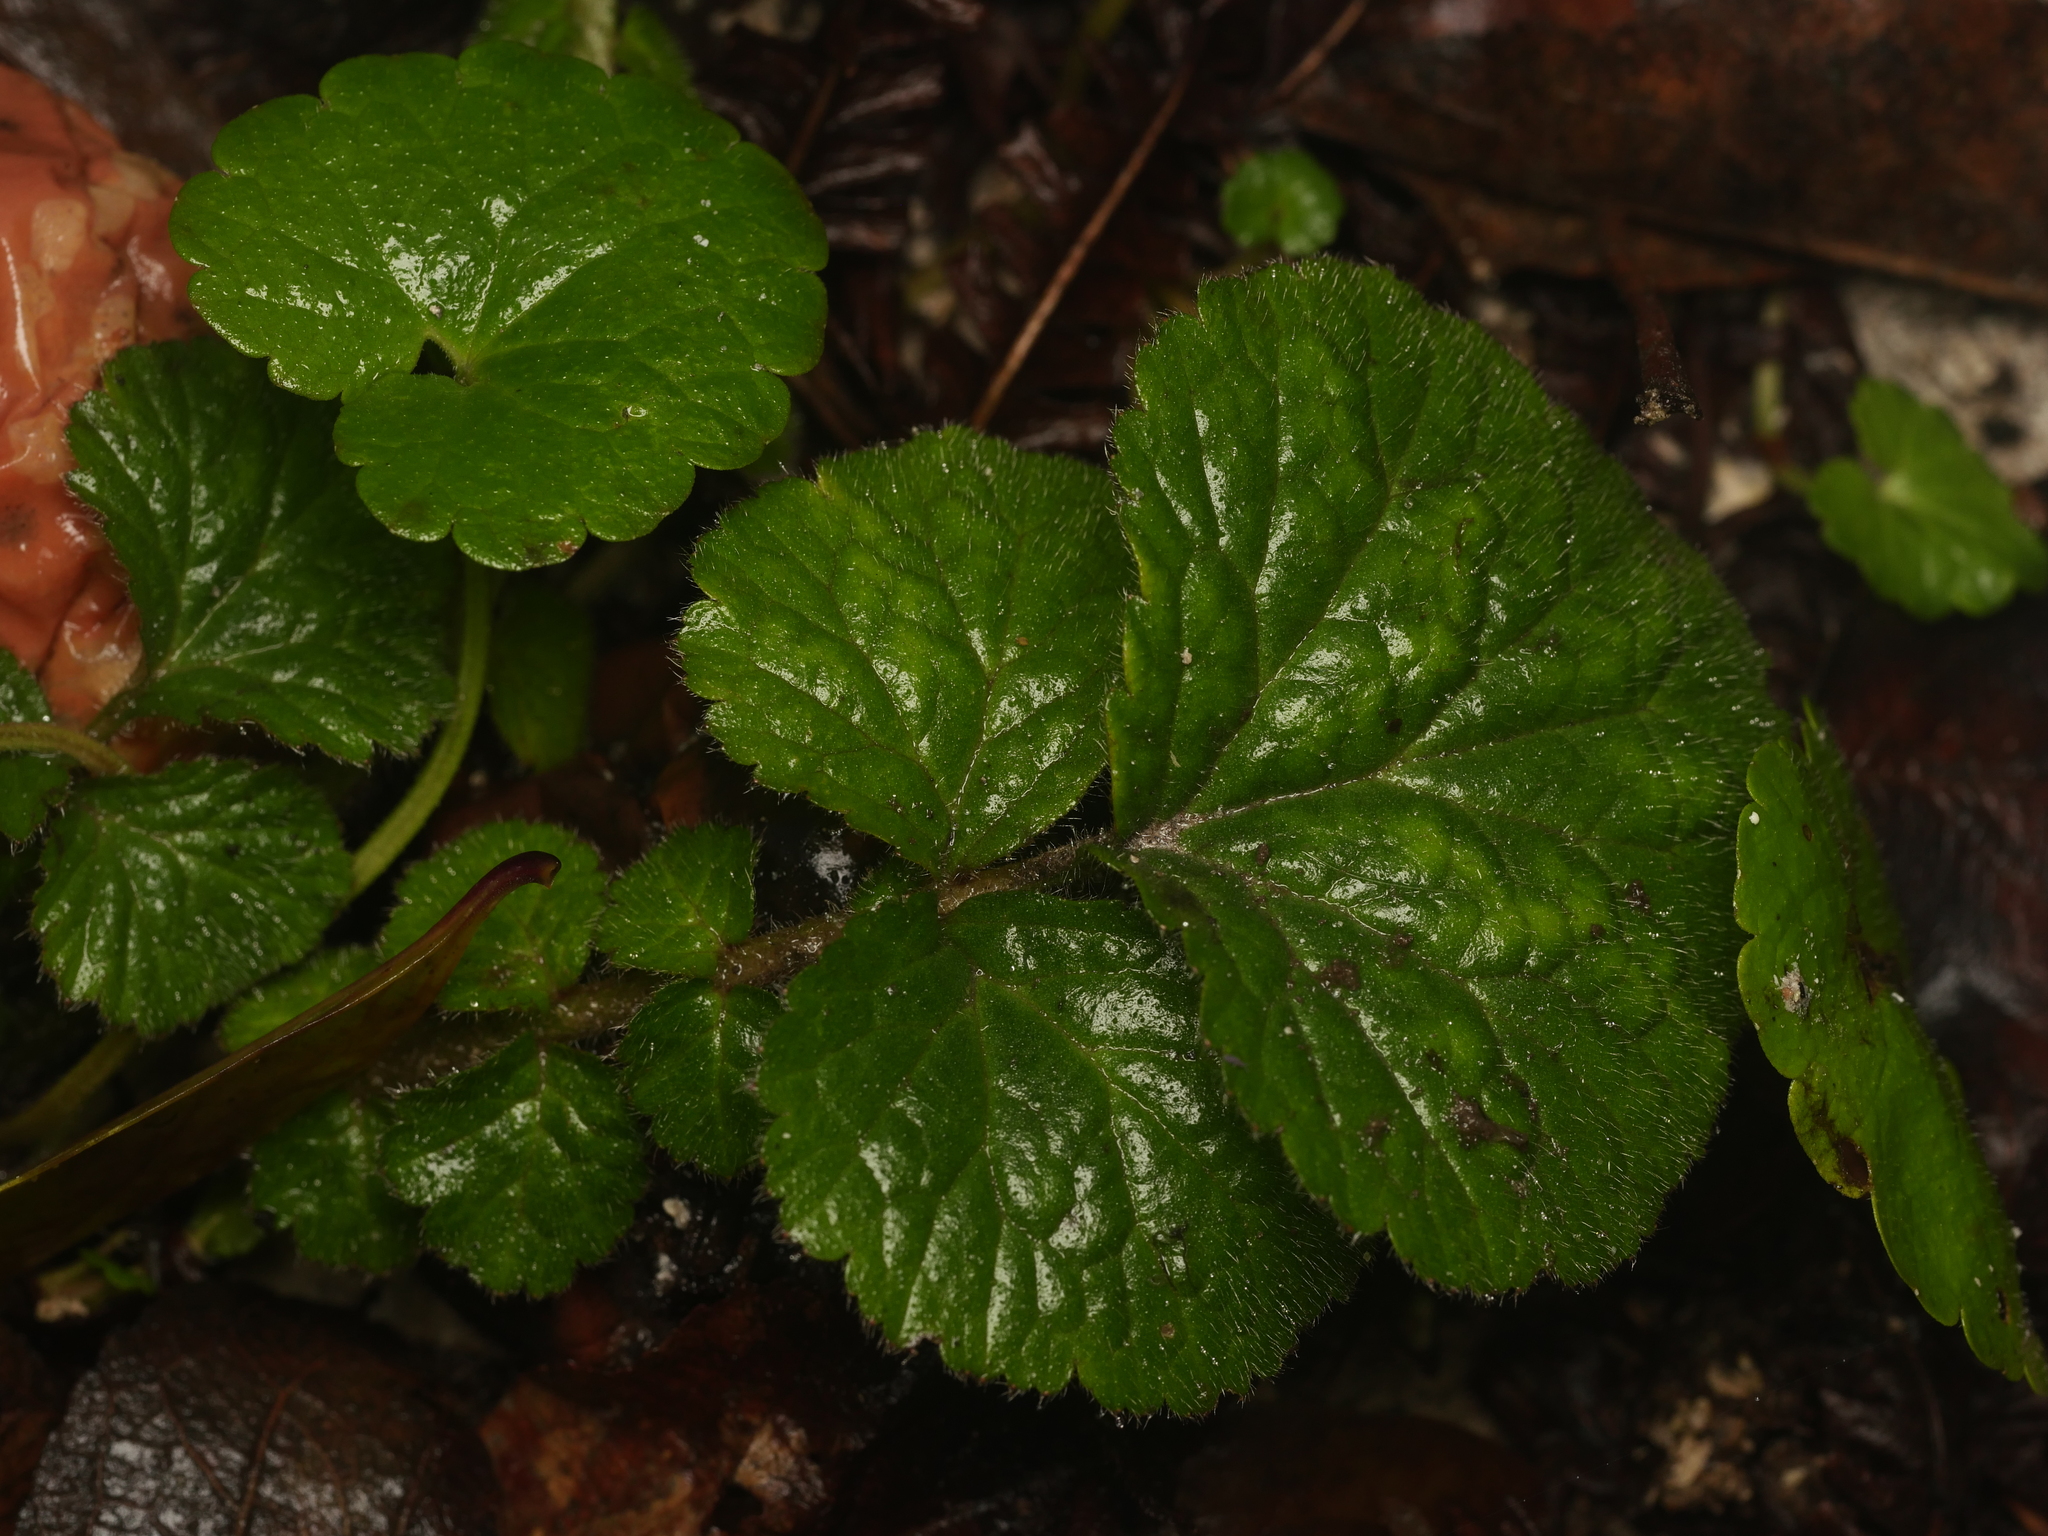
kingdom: Plantae
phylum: Tracheophyta
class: Magnoliopsida
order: Rosales
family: Rosaceae
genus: Geum
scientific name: Geum urbanum
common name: Wood avens
